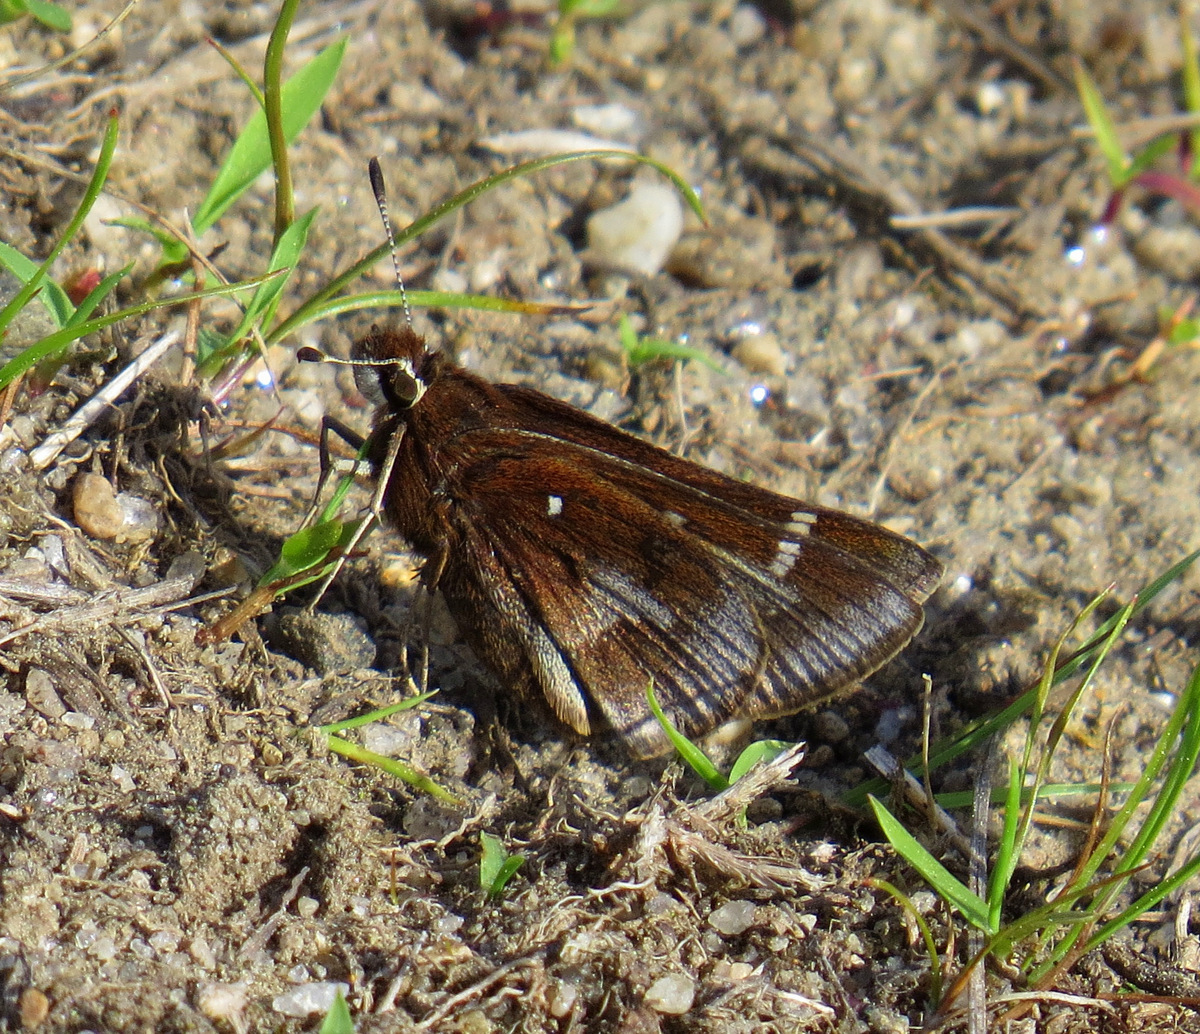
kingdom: Animalia
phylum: Arthropoda
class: Insecta
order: Lepidoptera
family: Hesperiidae
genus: Atrytonopsis
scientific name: Atrytonopsis hianna
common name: Dusted skipper
